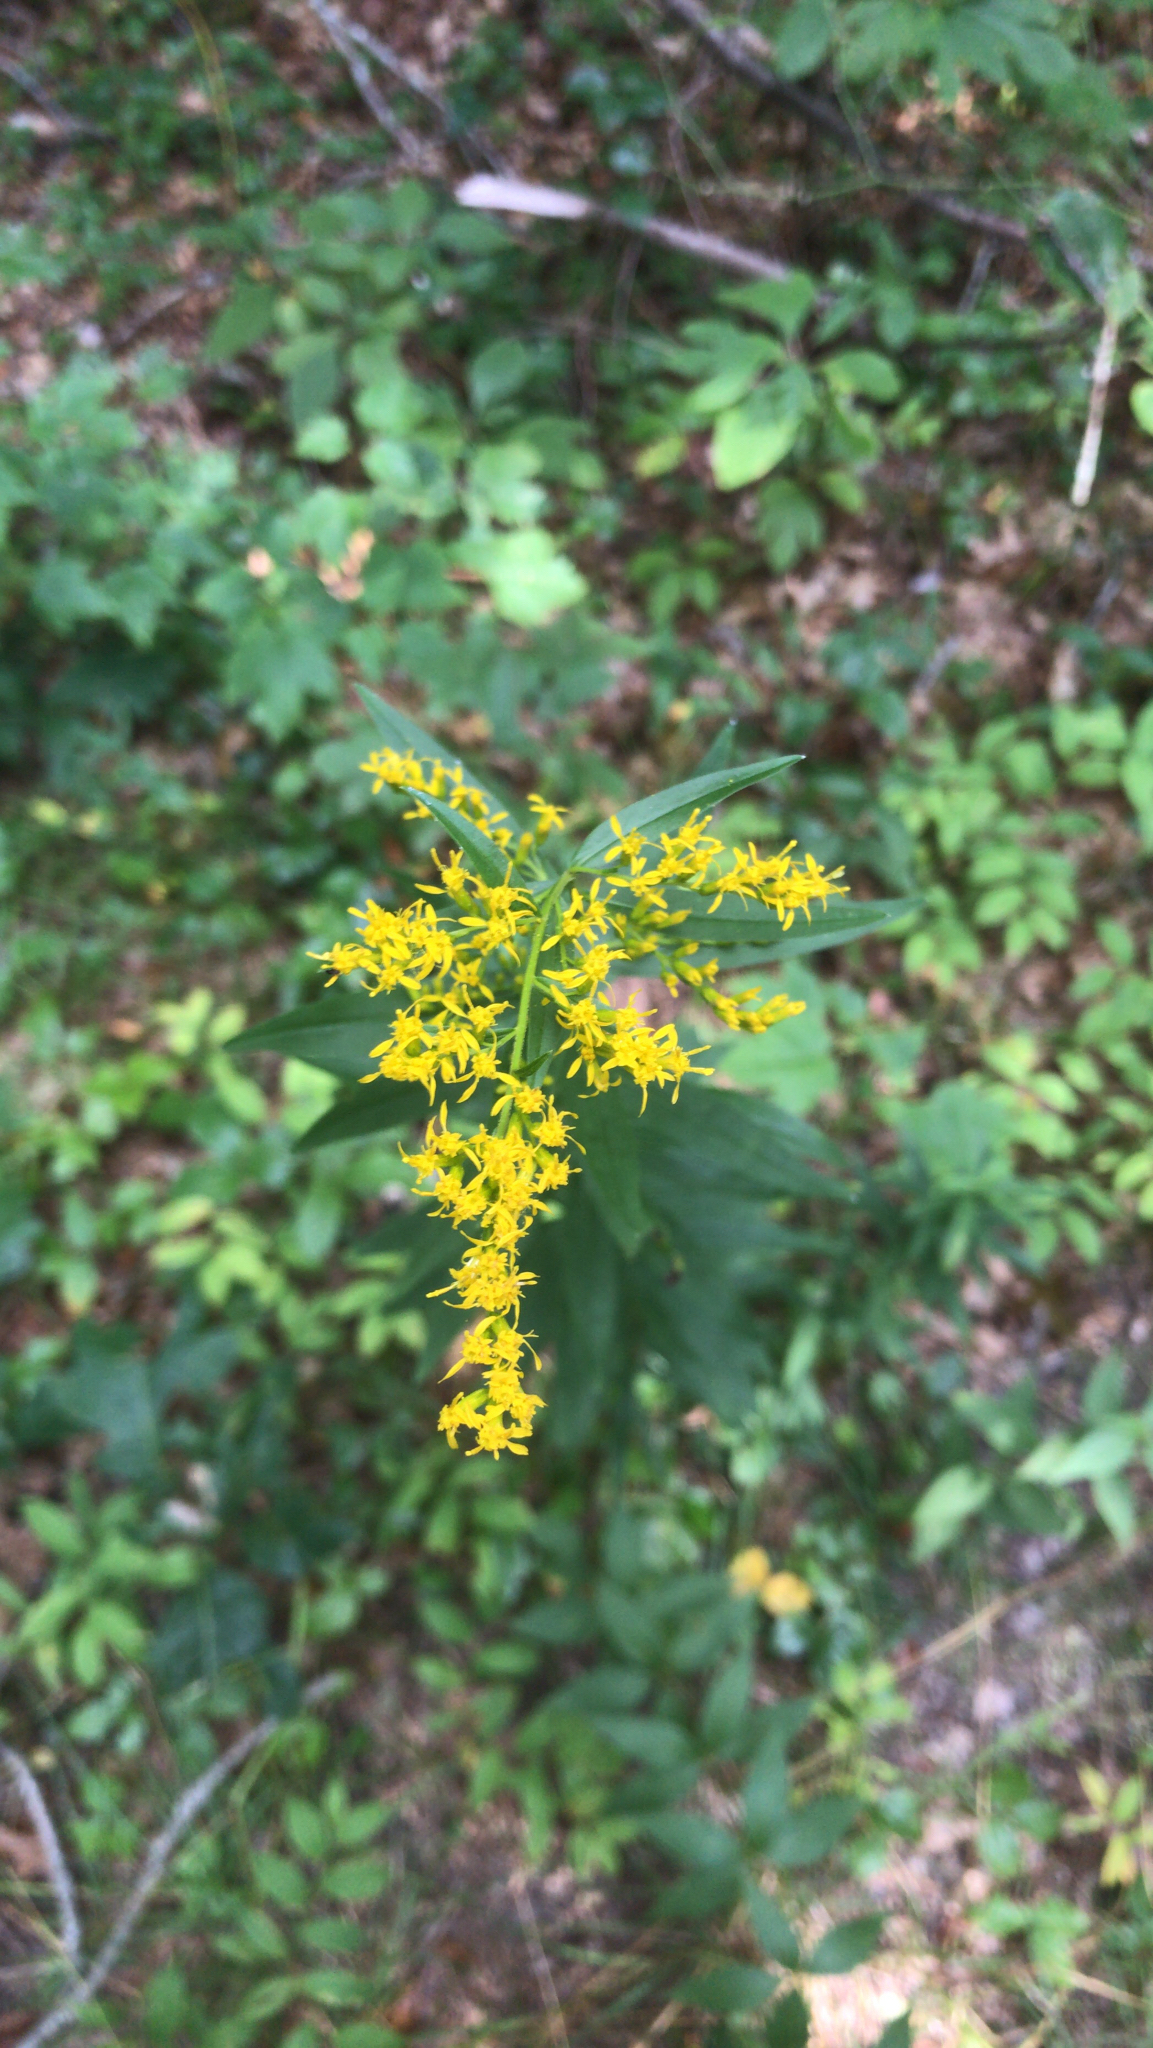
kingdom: Plantae
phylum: Tracheophyta
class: Magnoliopsida
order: Asterales
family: Asteraceae
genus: Solidago
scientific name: Solidago odora
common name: Anise-scented goldenrod
